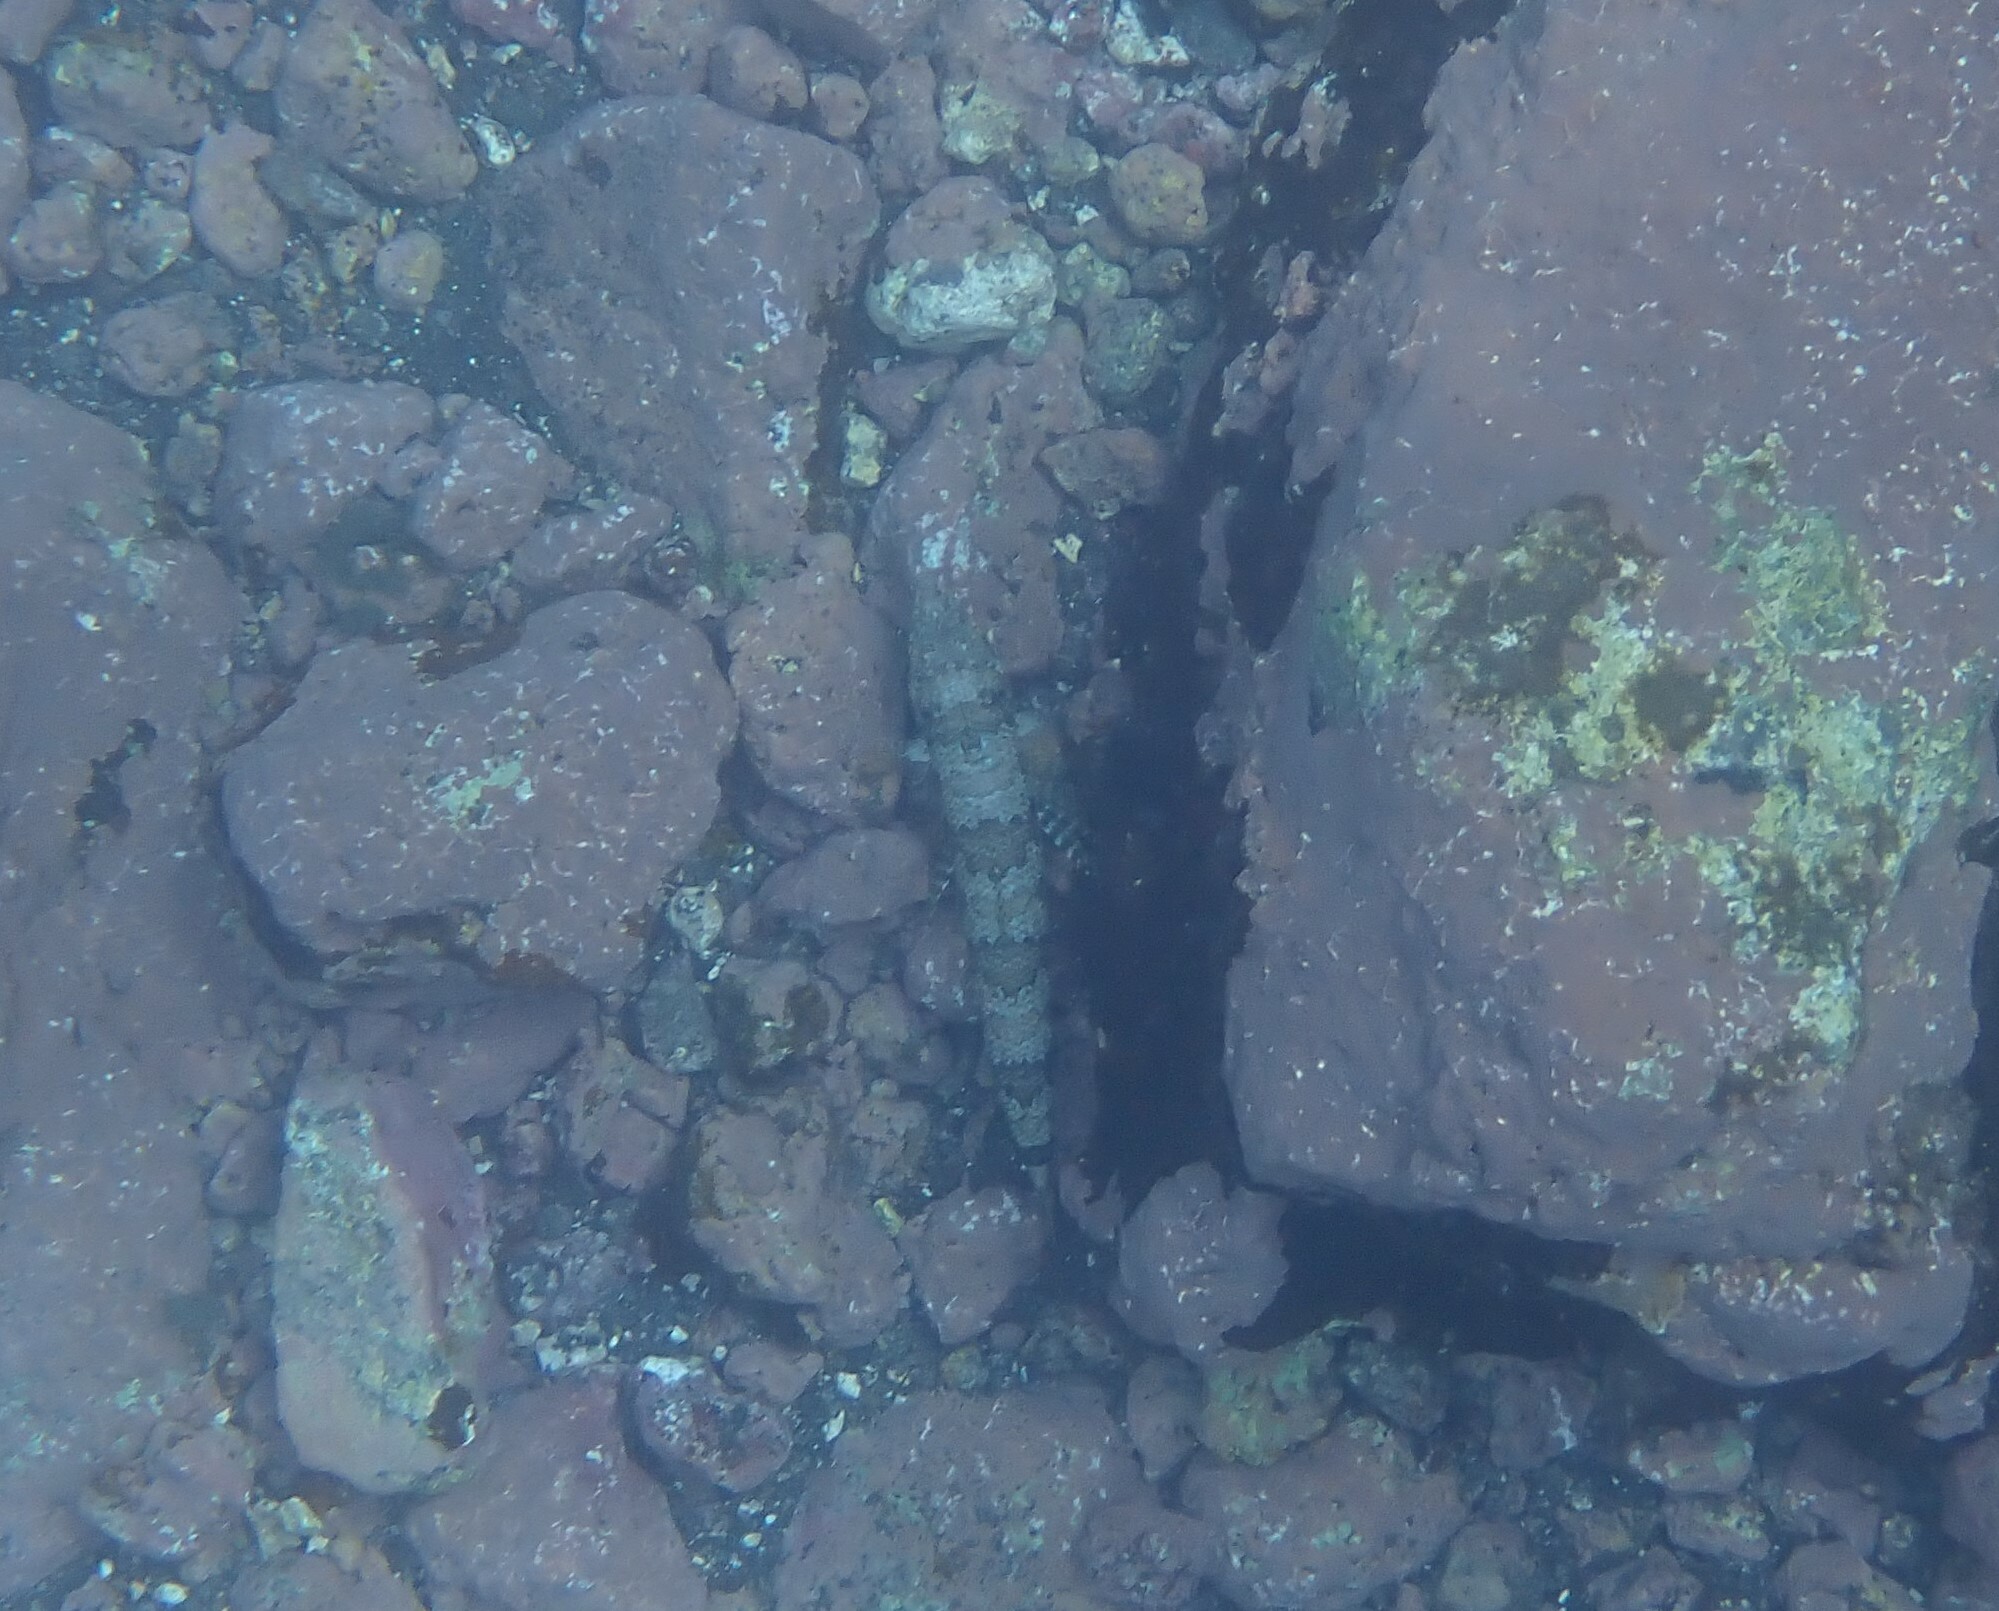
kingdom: Animalia
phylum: Chordata
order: Aulopiformes
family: Synodontidae
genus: Synodus
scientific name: Synodus synodus
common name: Red lizardfish
